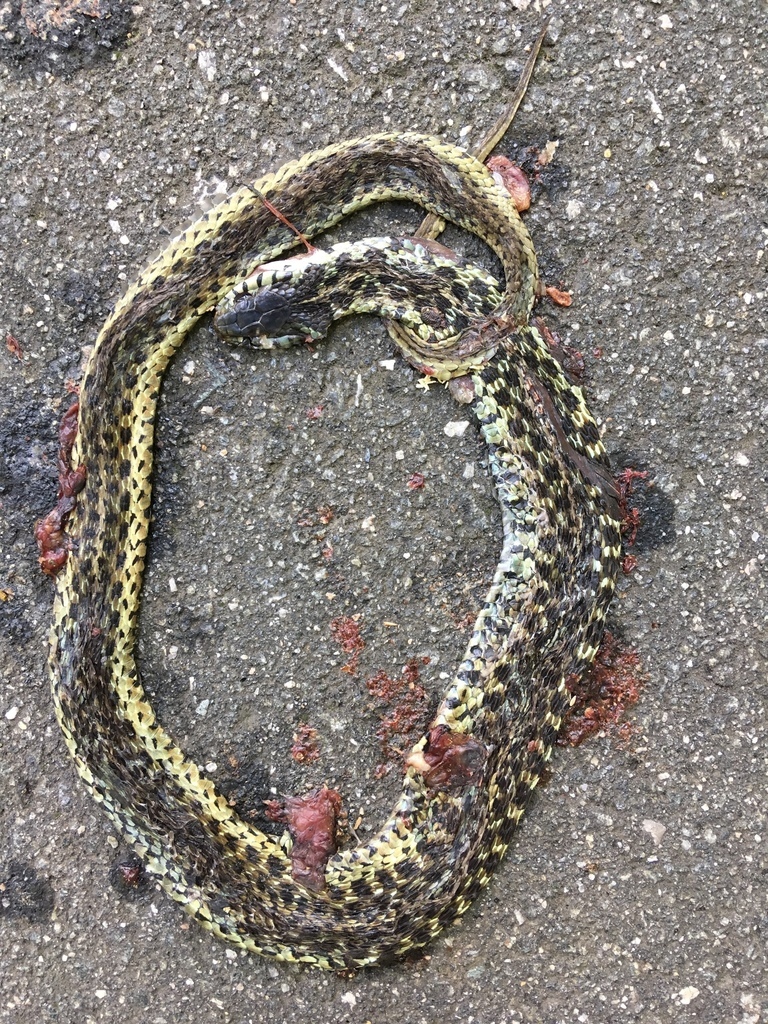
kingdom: Animalia
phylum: Chordata
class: Squamata
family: Colubridae
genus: Thamnophis
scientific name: Thamnophis sirtalis
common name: Common garter snake
